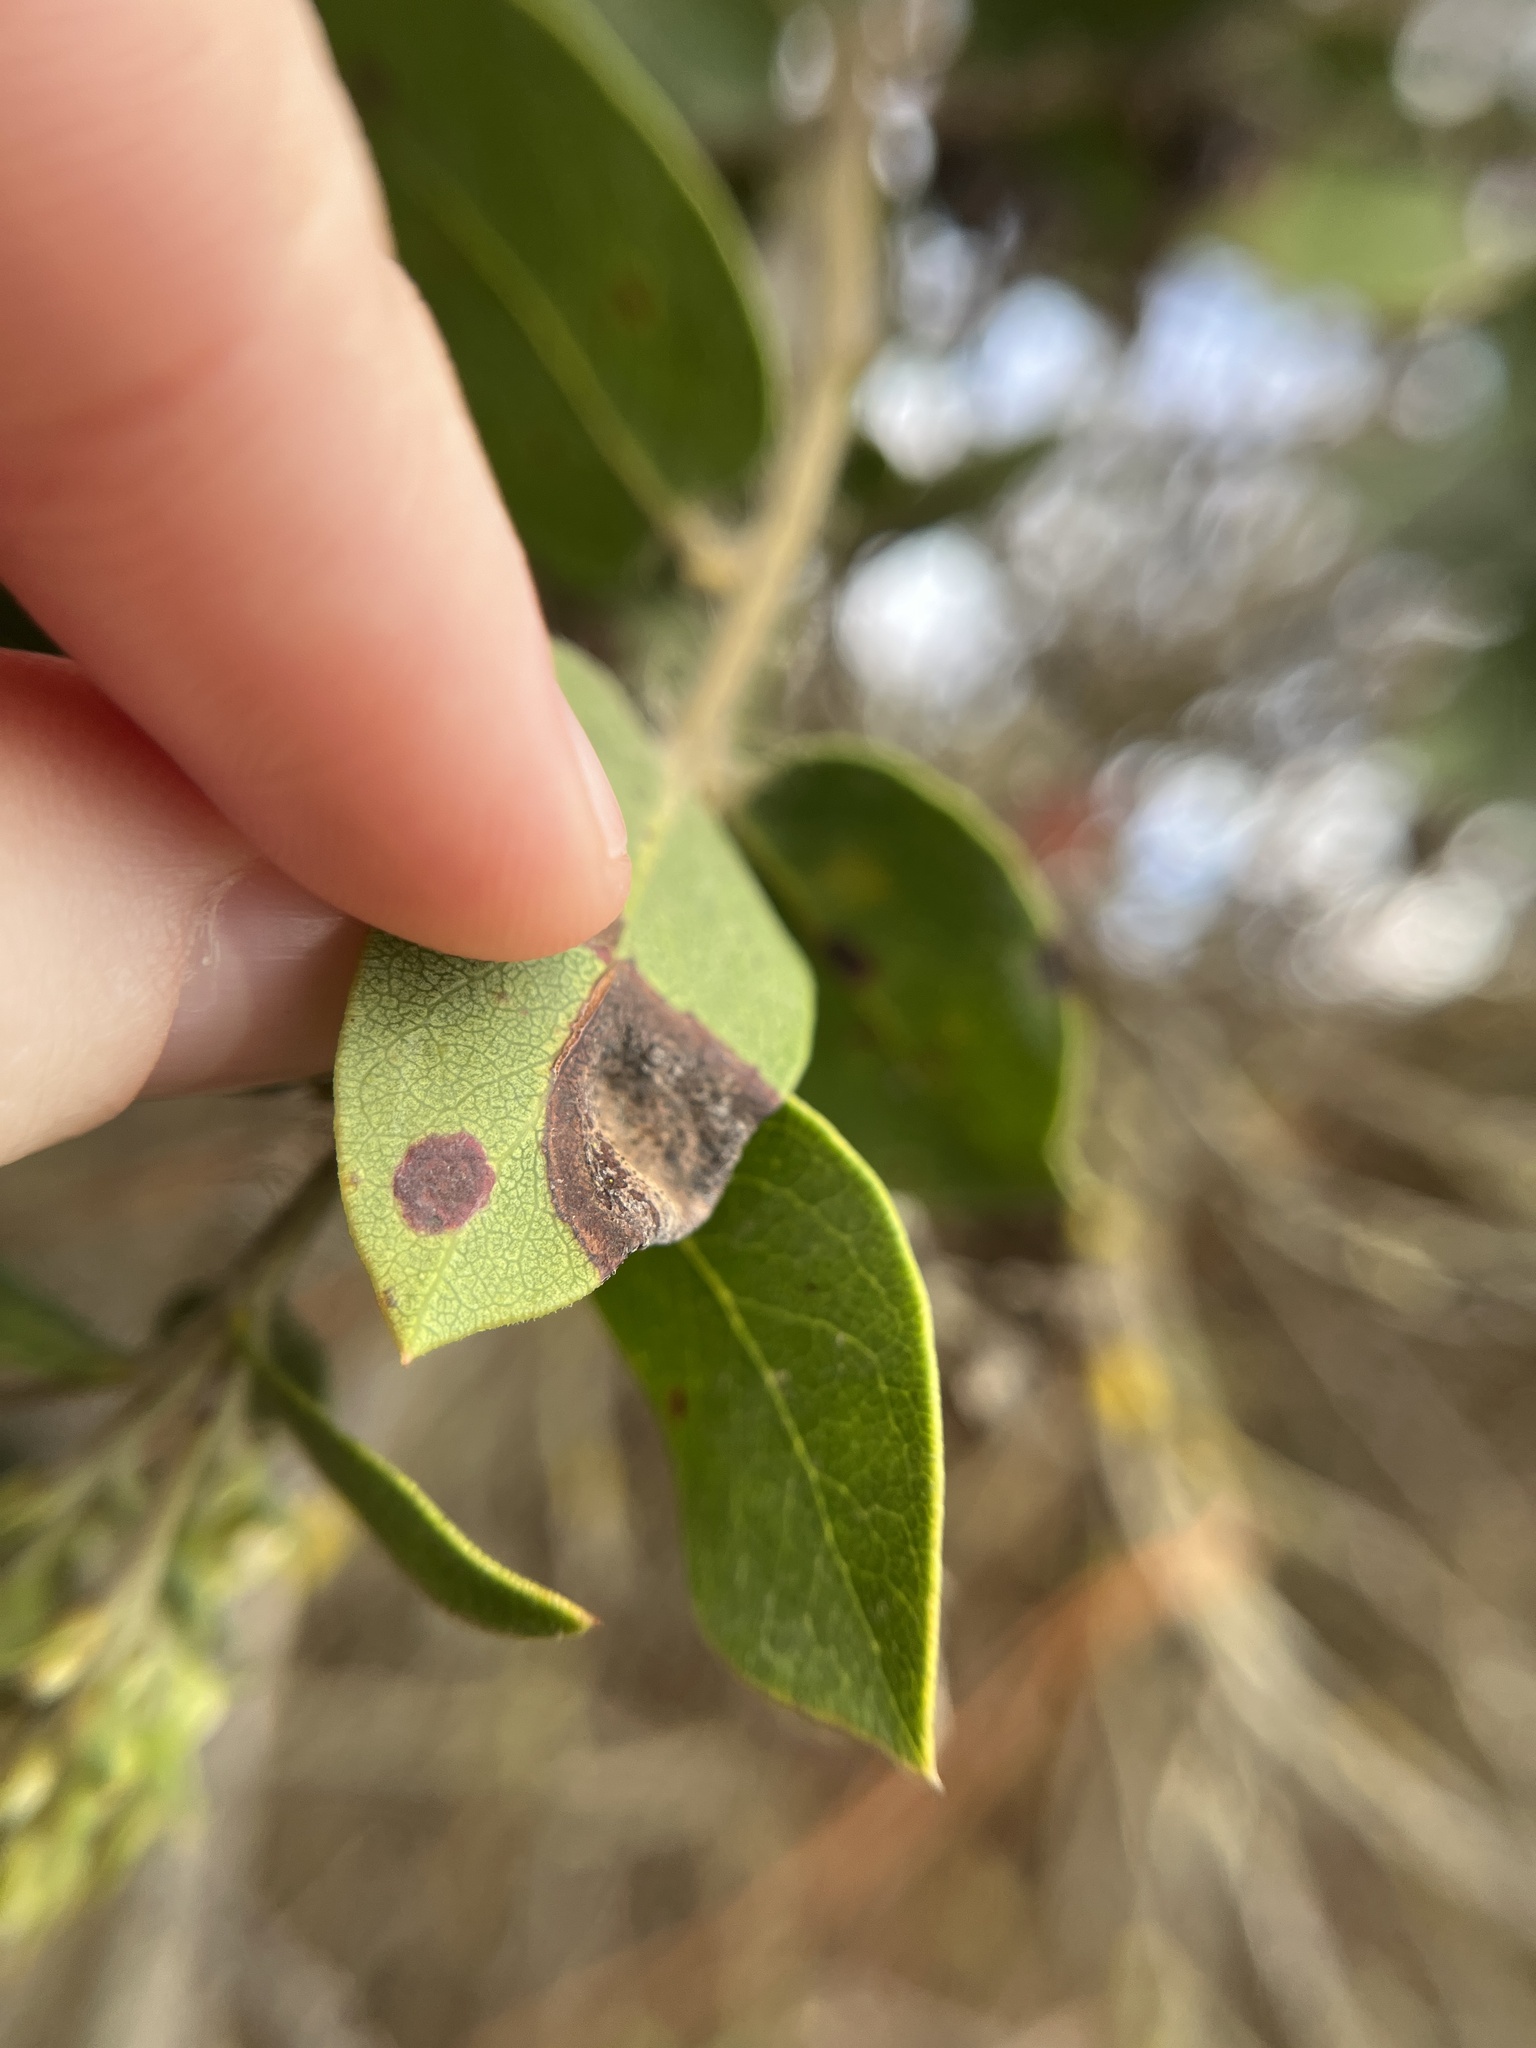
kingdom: Fungi
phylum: Basidiomycota
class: Exobasidiomycetes
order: Exobasidiales
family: Exobasidiaceae
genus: Exobasidium
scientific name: Exobasidium arctostaphyli
